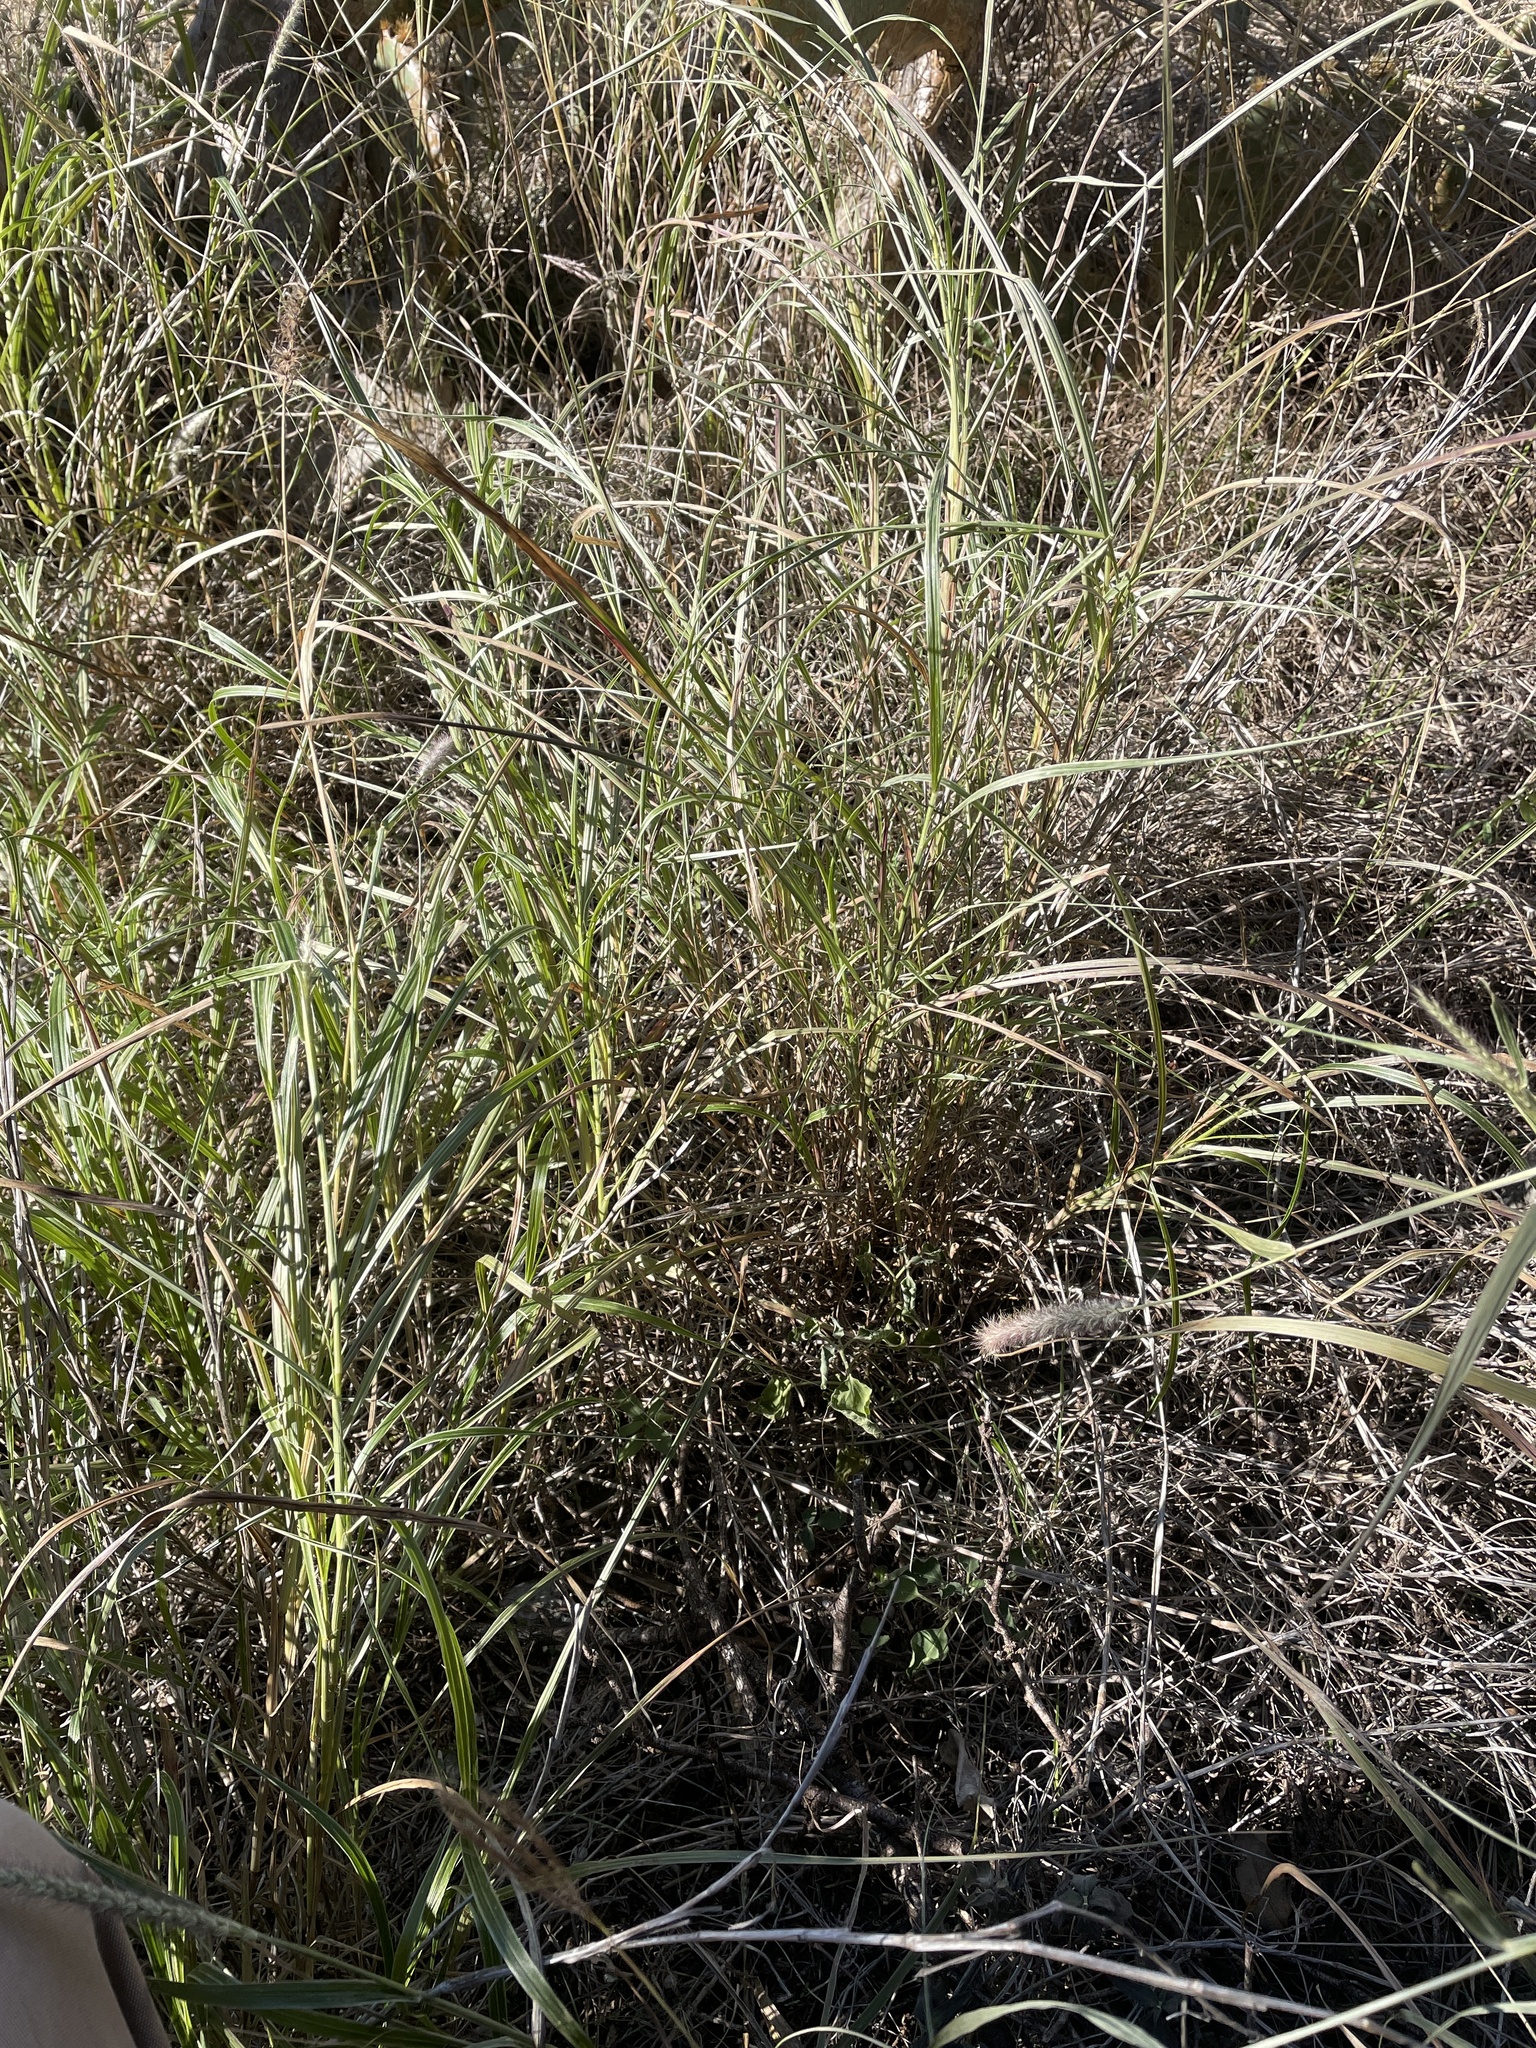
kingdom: Plantae
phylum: Tracheophyta
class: Liliopsida
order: Poales
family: Poaceae
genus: Cenchrus
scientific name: Cenchrus ciliaris
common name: Buffelgrass
